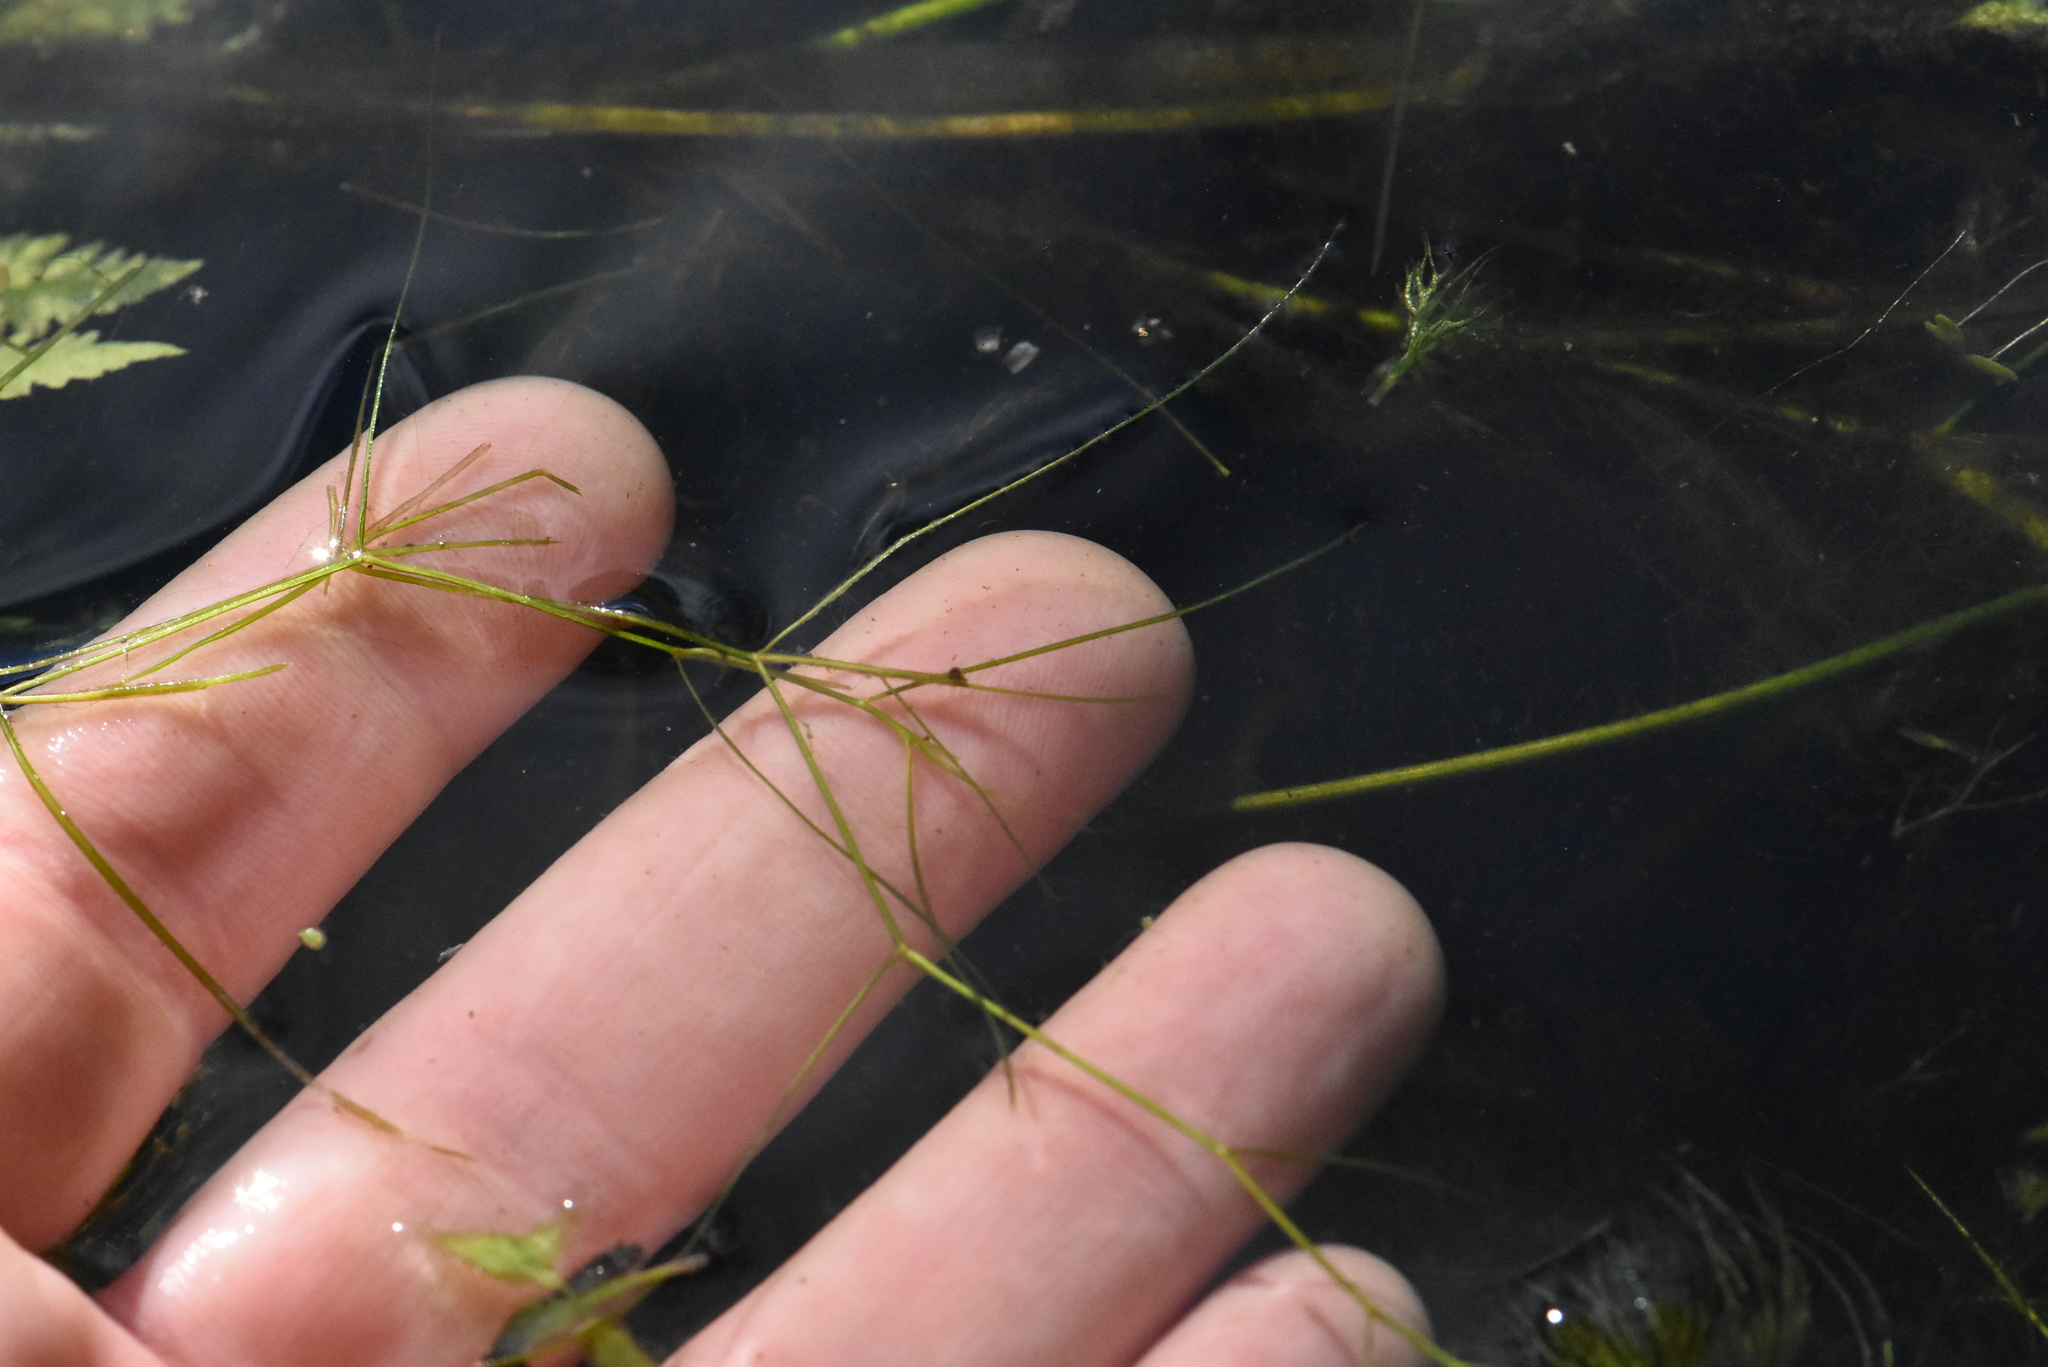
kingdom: Plantae
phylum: Tracheophyta
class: Liliopsida
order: Alismatales
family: Potamogetonaceae
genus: Potamogeton
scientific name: Potamogeton trichoides
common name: Hairlike pondweed
